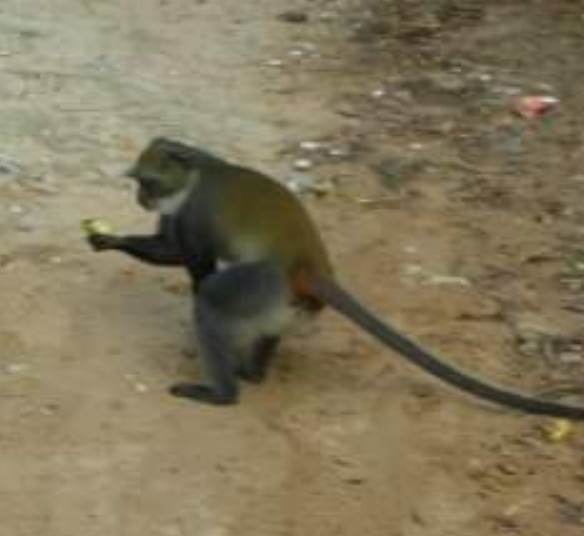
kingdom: Animalia
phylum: Chordata
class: Mammalia
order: Primates
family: Cercopithecidae
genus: Cercopithecus
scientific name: Cercopithecus mitis
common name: Blue monkey
